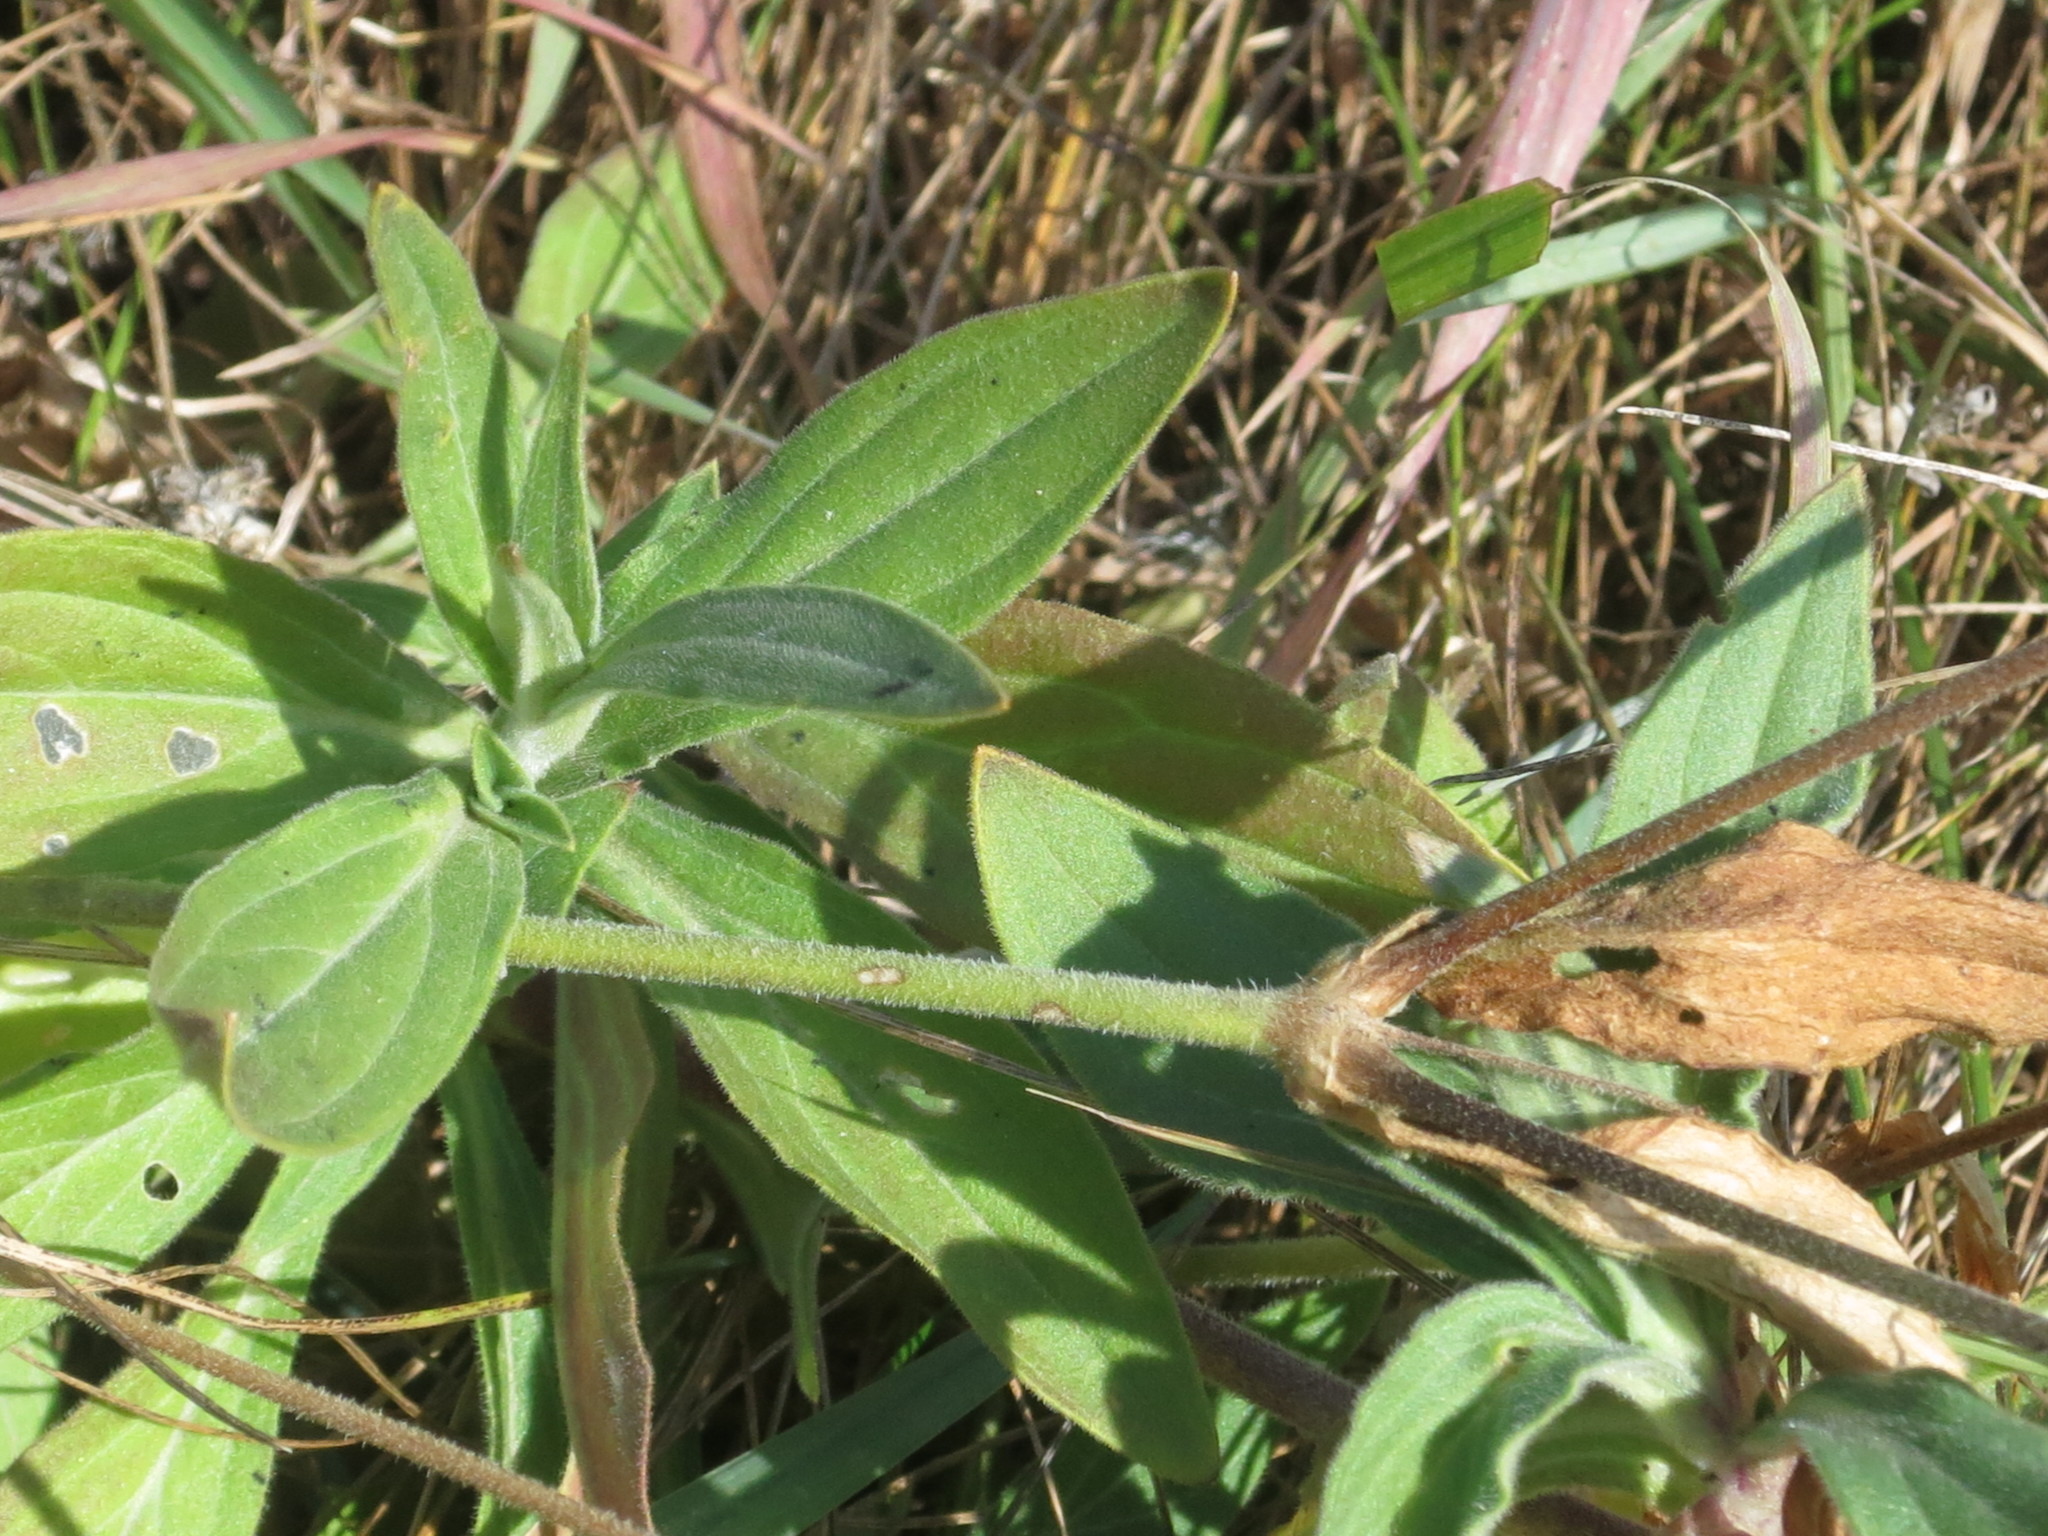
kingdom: Plantae
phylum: Tracheophyta
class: Magnoliopsida
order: Caryophyllales
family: Caryophyllaceae
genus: Silene
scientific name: Silene latifolia
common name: White campion
